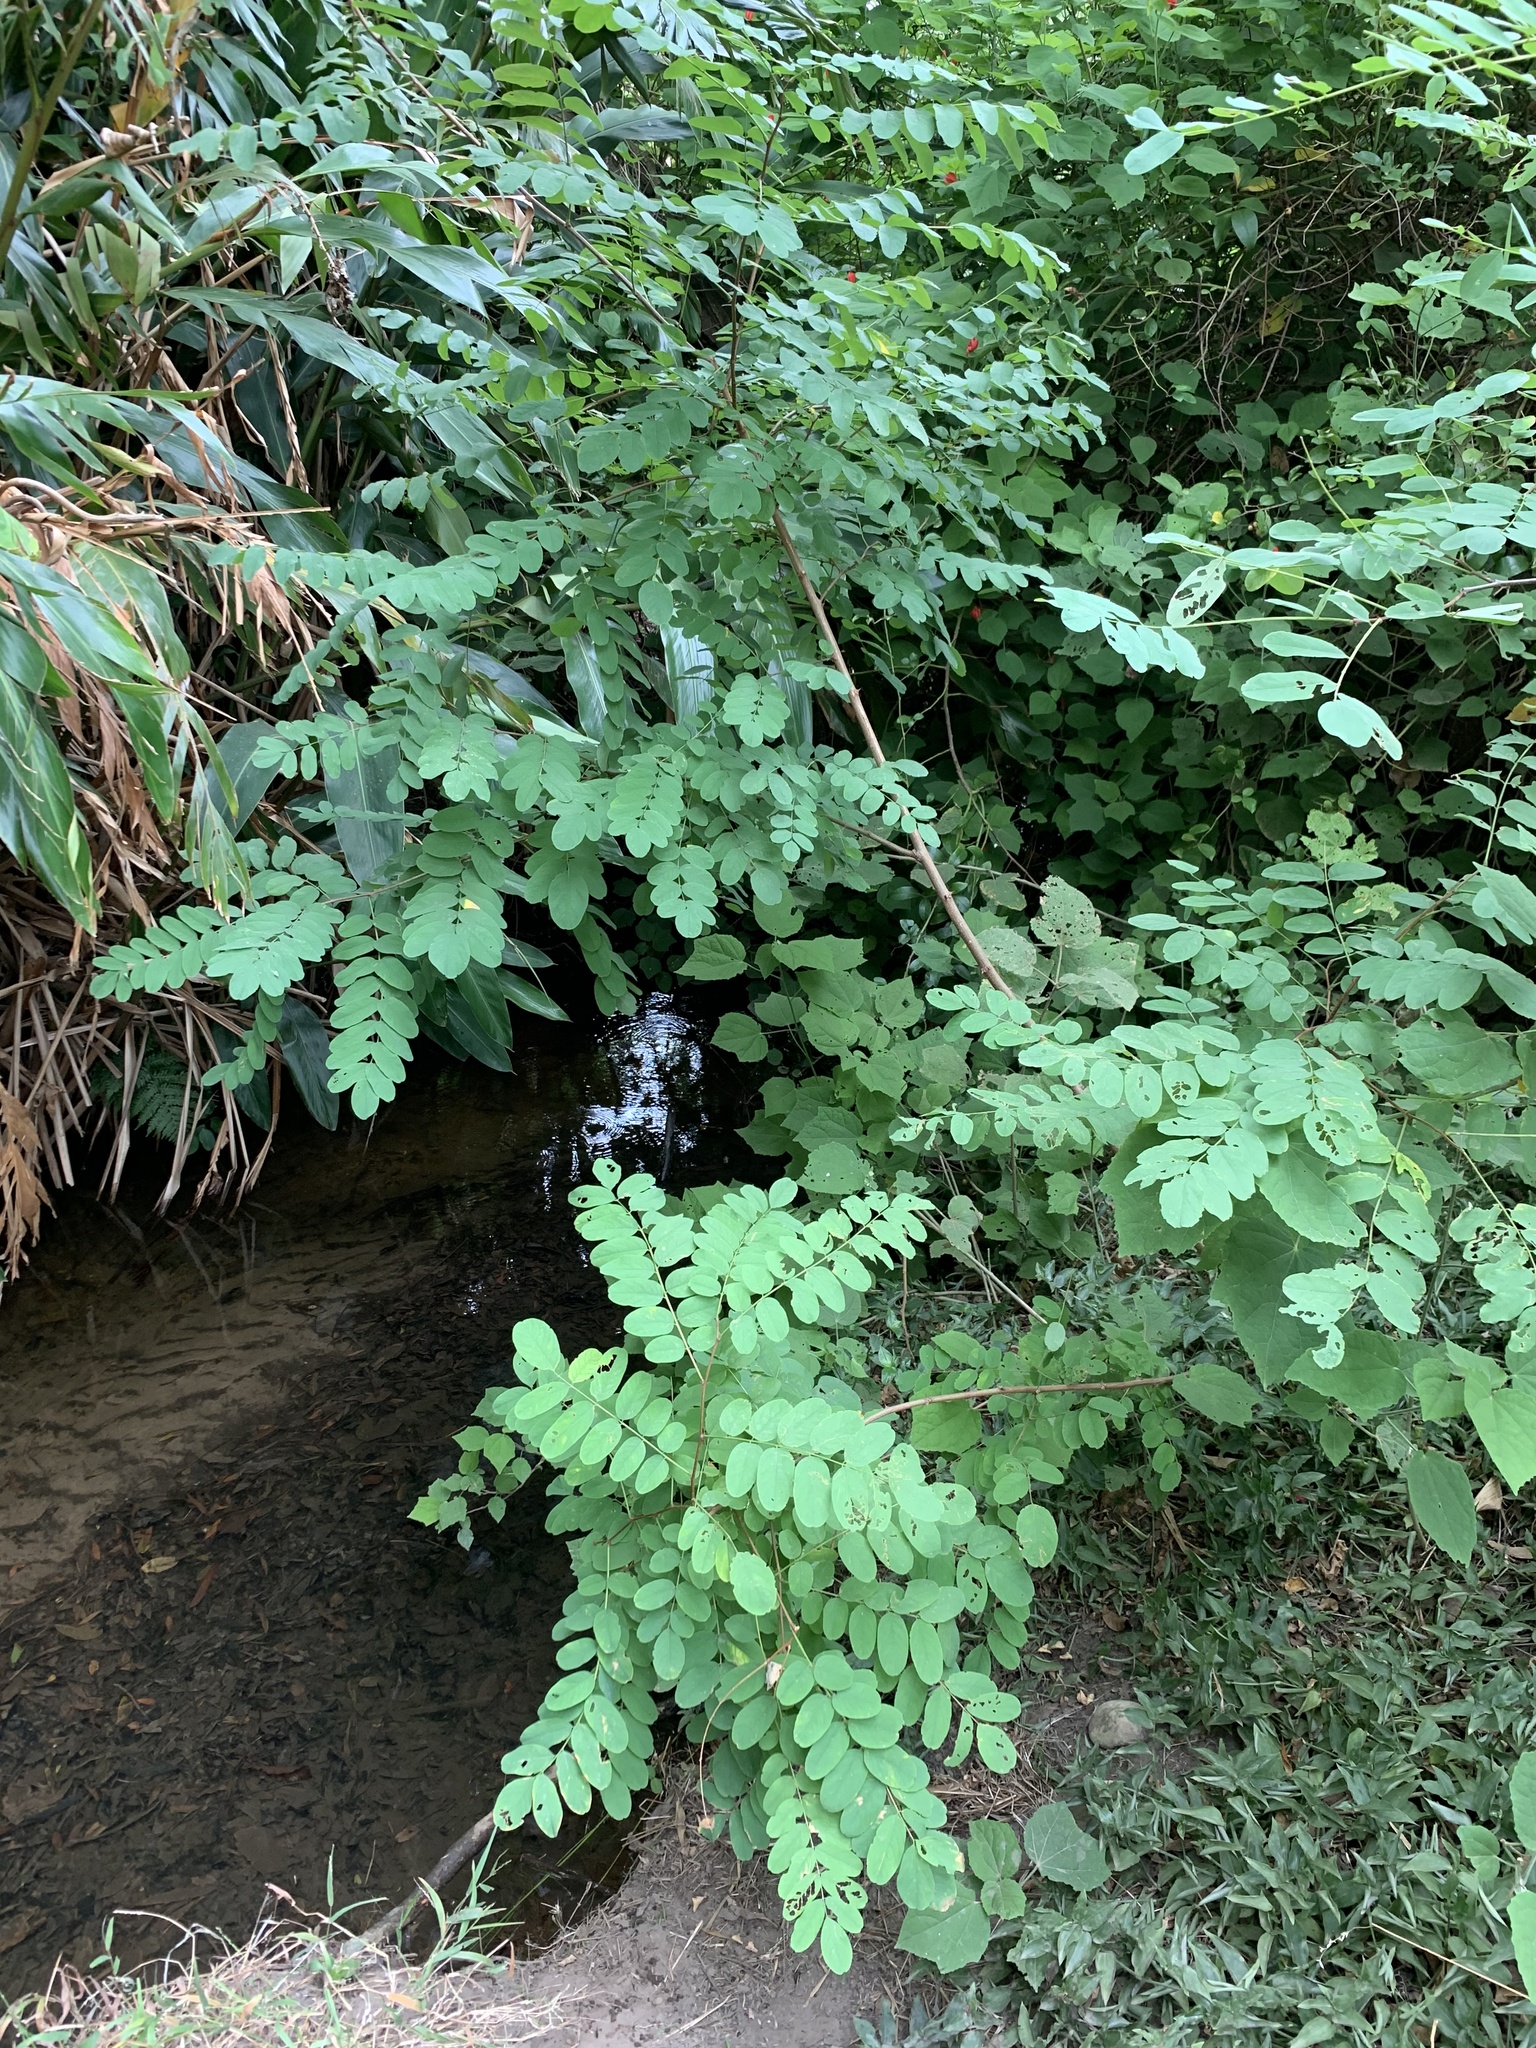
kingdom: Plantae
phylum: Tracheophyta
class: Magnoliopsida
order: Fabales
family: Fabaceae
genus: Robinia
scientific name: Robinia pseudoacacia
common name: Black locust
